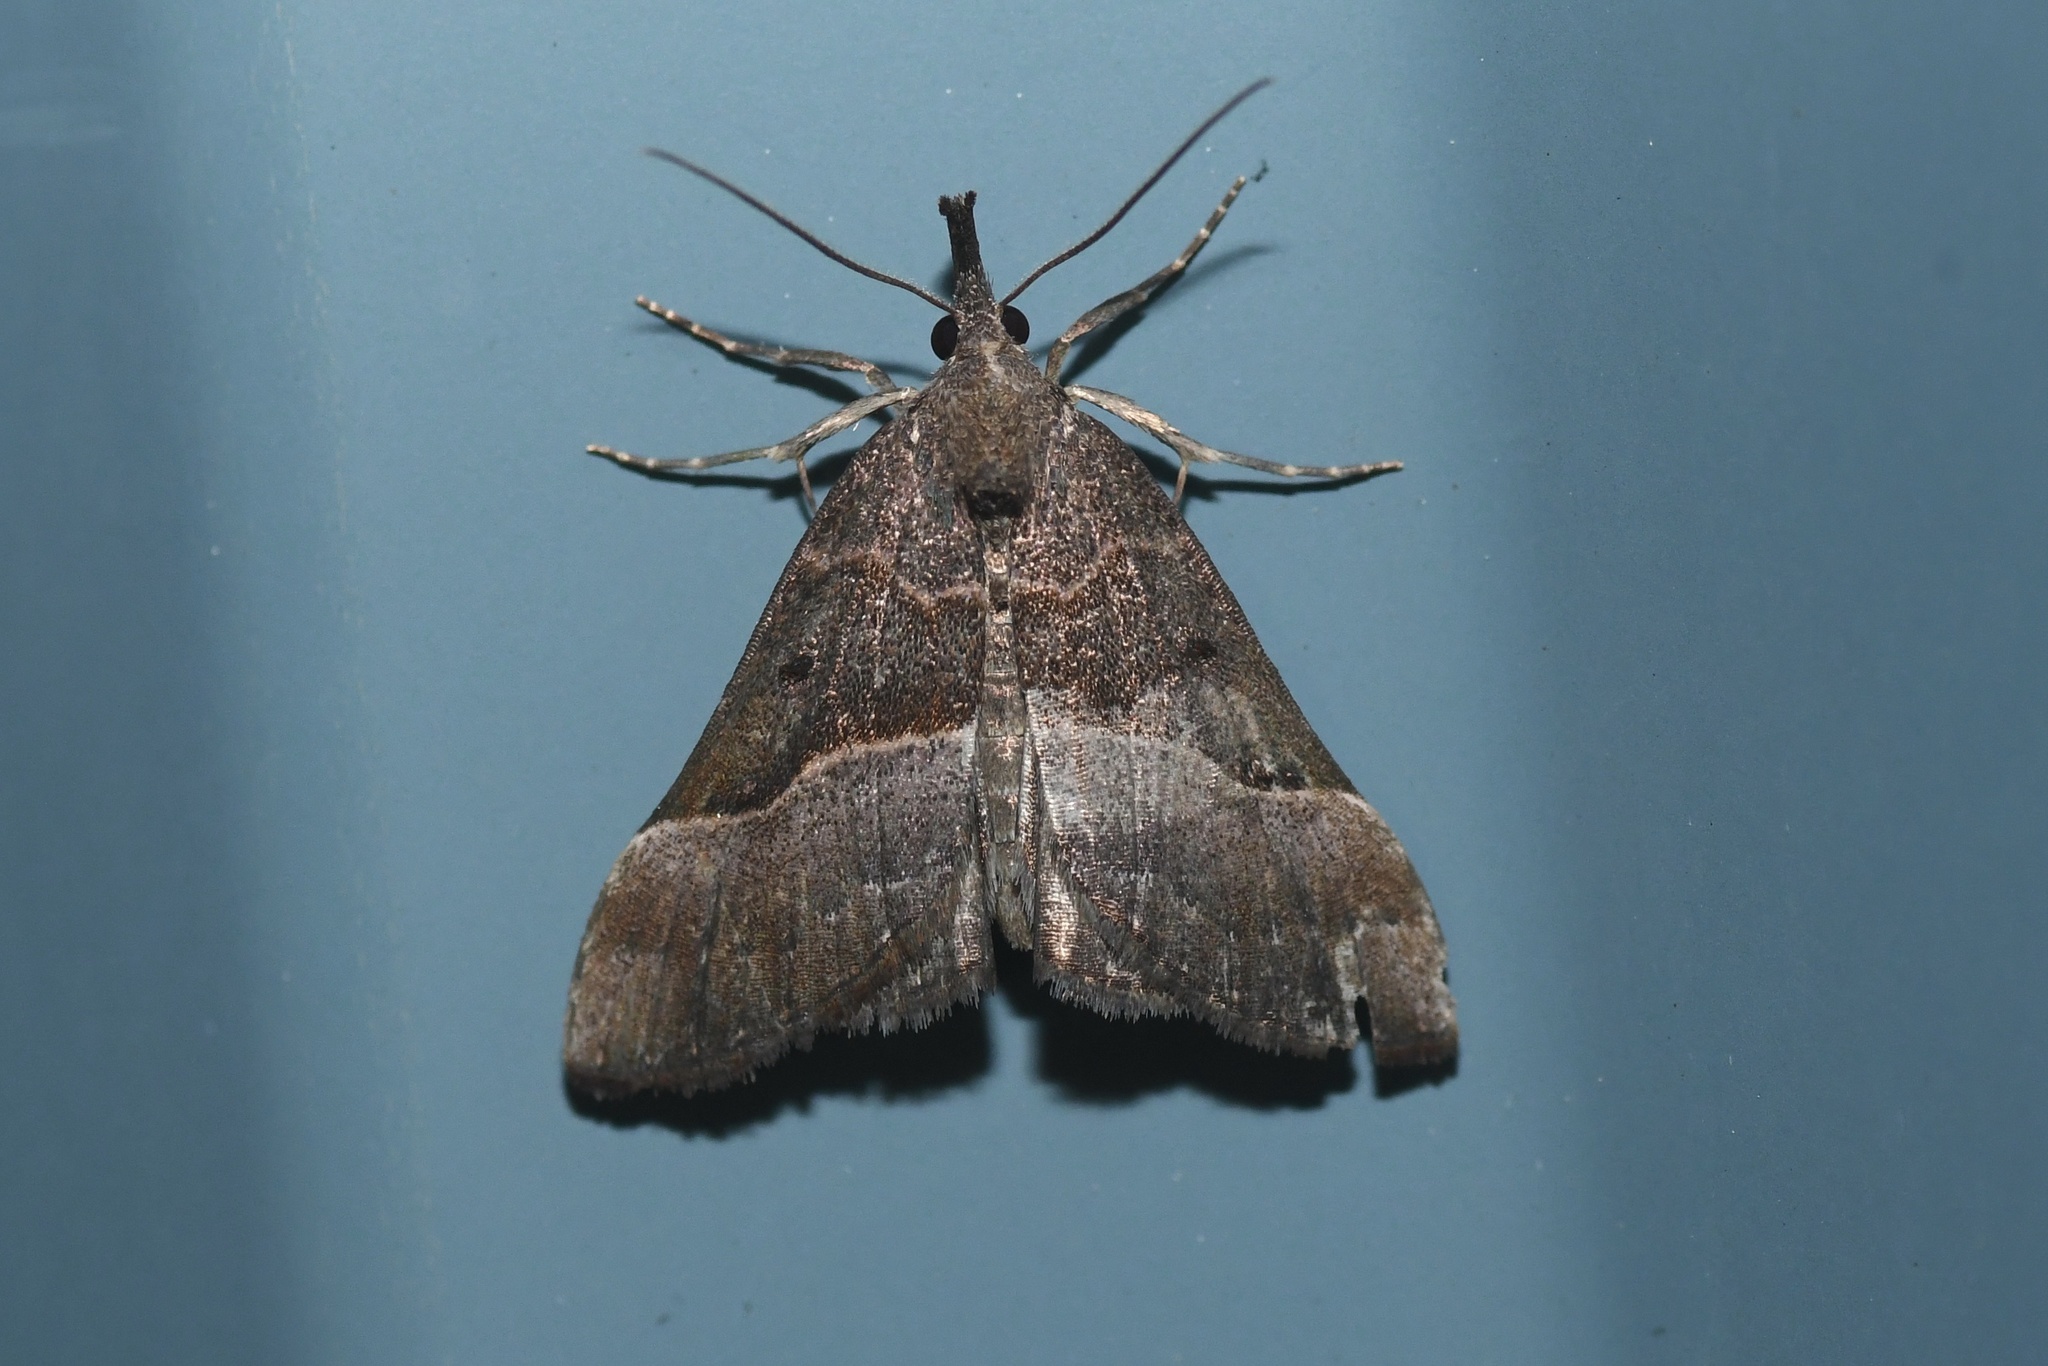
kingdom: Animalia
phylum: Arthropoda
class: Insecta
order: Lepidoptera
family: Erebidae
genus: Hypena
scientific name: Hypena eductalis
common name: Red-footed snout
